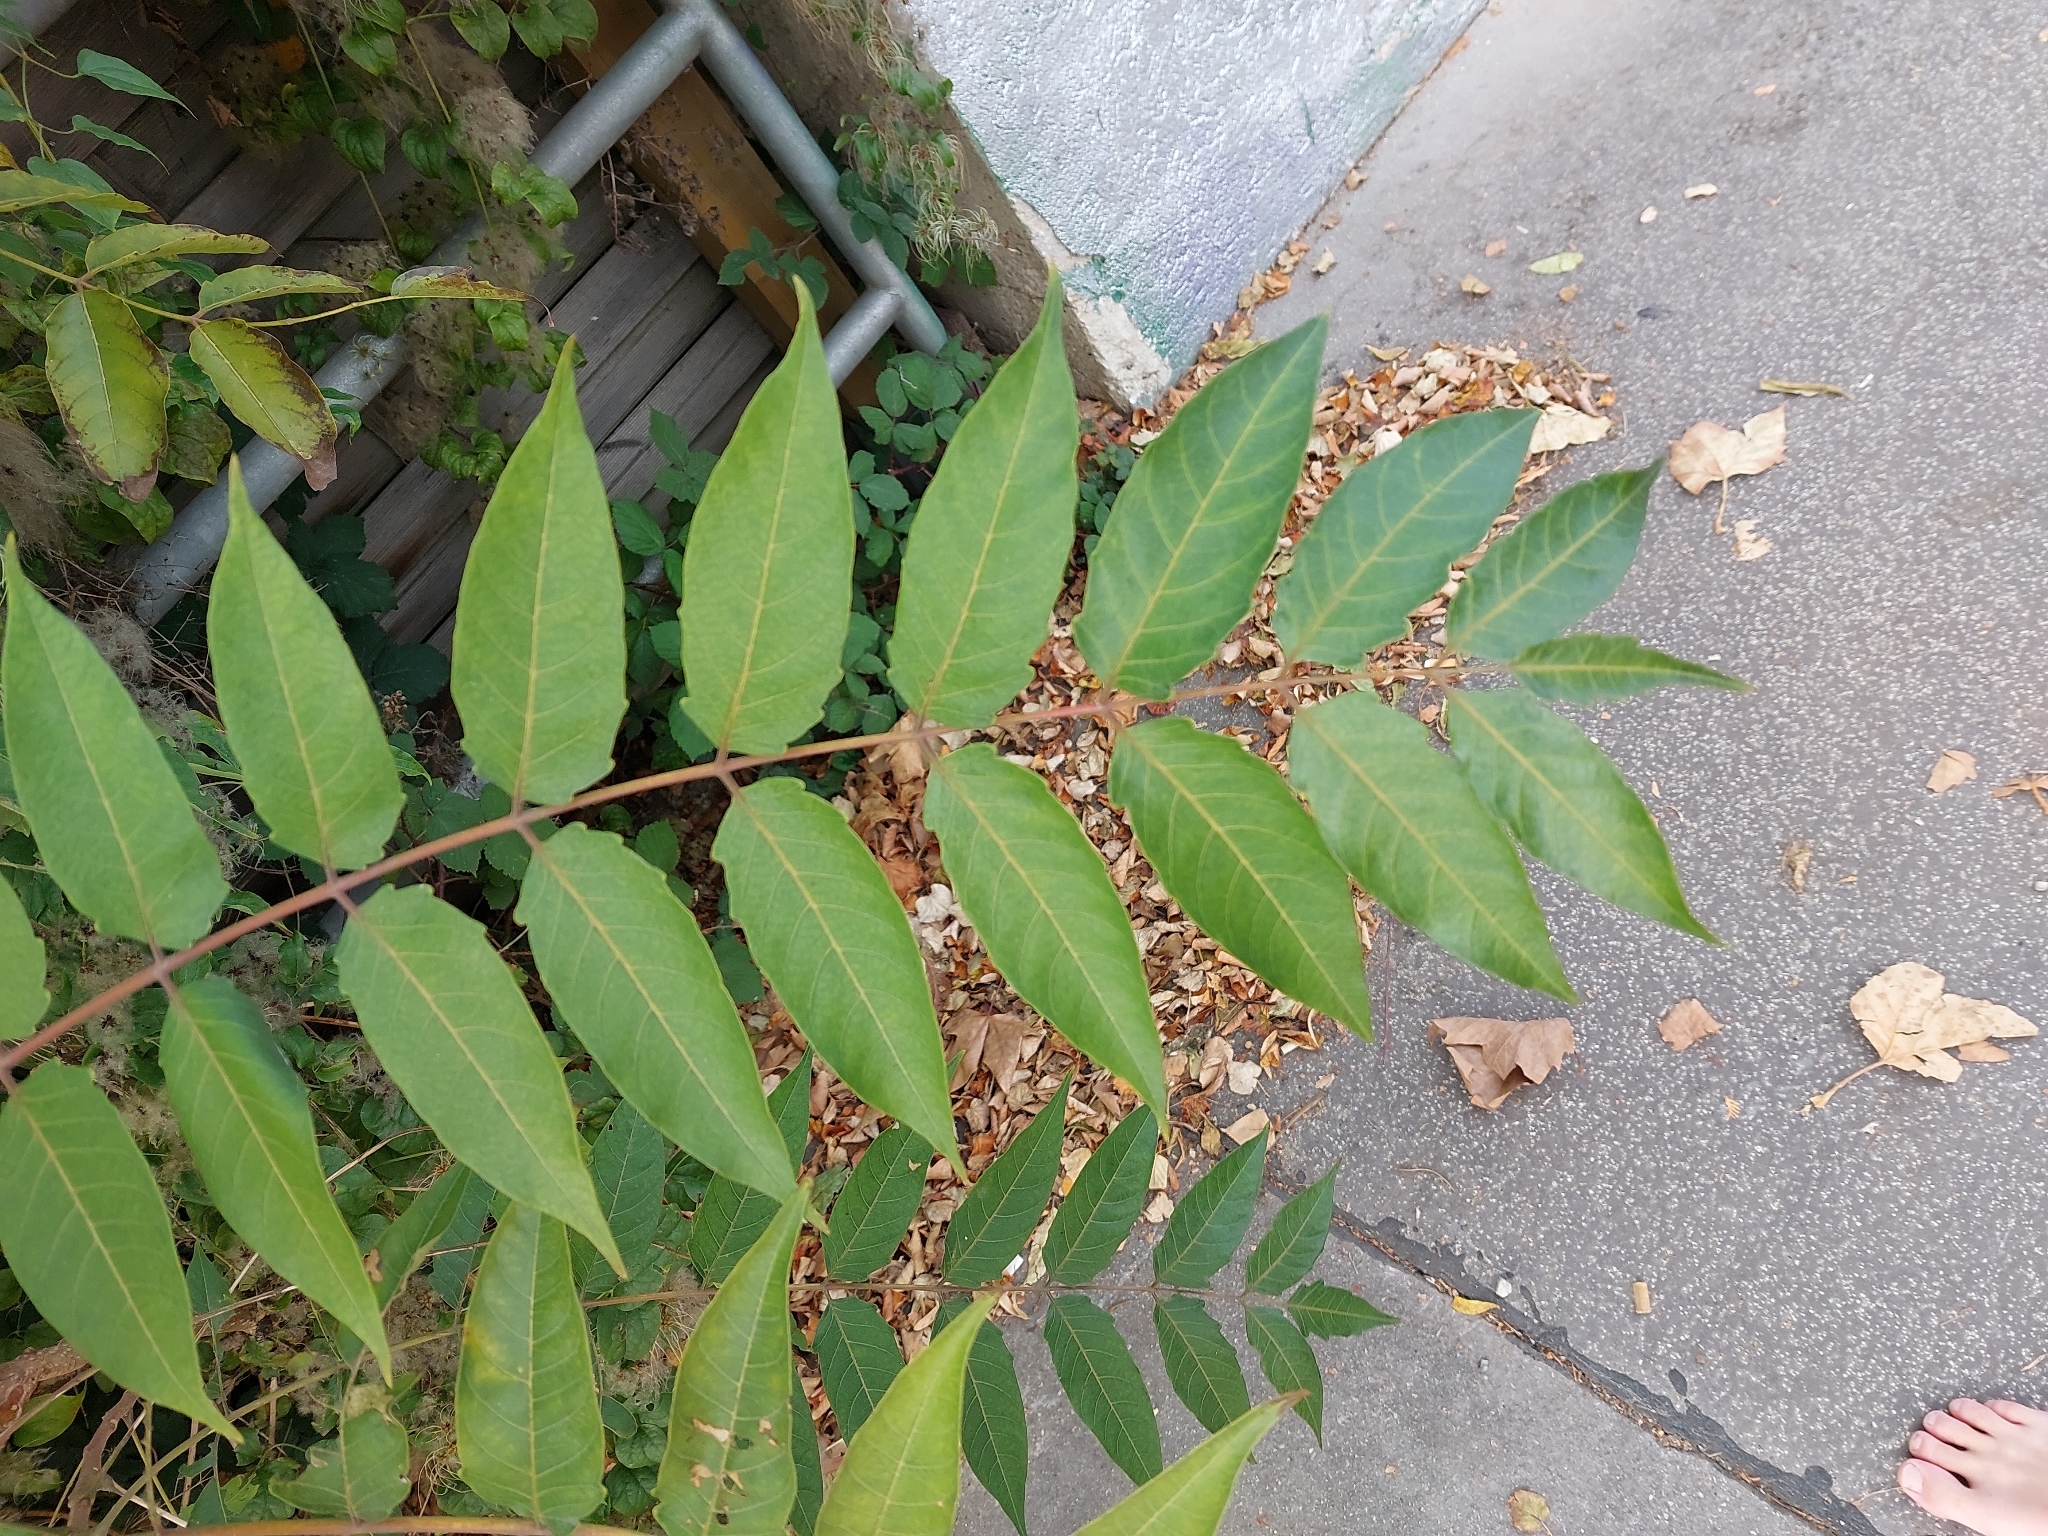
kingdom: Plantae
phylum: Tracheophyta
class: Magnoliopsida
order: Sapindales
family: Simaroubaceae
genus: Ailanthus
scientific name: Ailanthus altissima
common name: Tree-of-heaven
